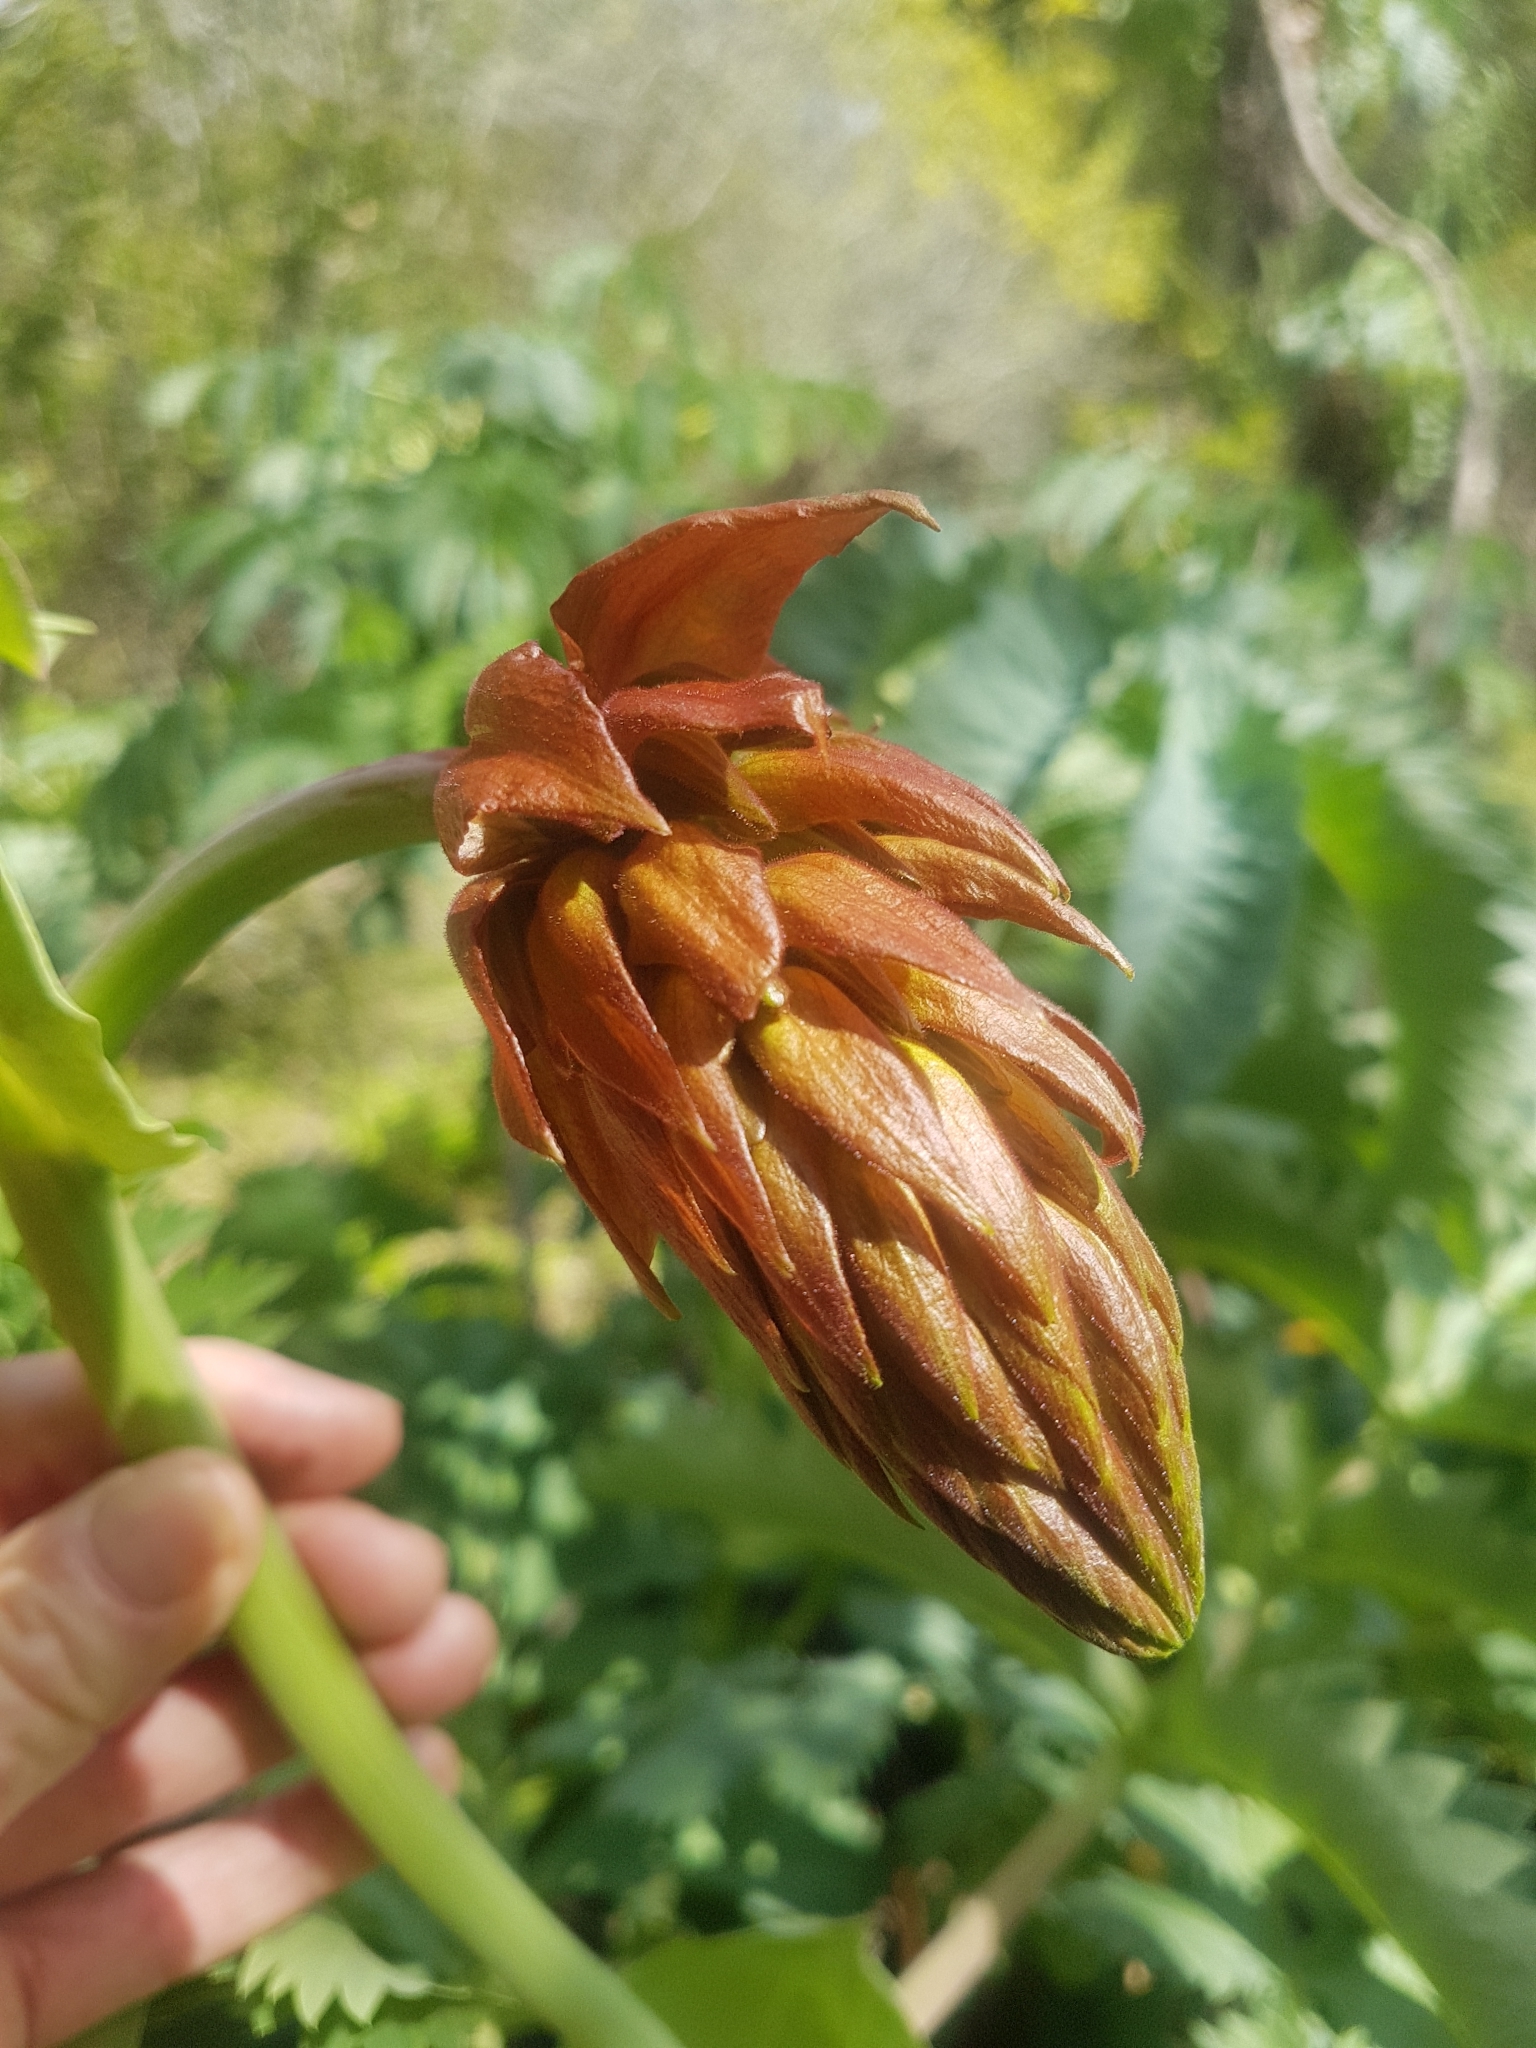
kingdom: Plantae
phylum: Tracheophyta
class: Magnoliopsida
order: Geraniales
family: Melianthaceae
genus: Melianthus
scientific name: Melianthus major
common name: Honey-flower
